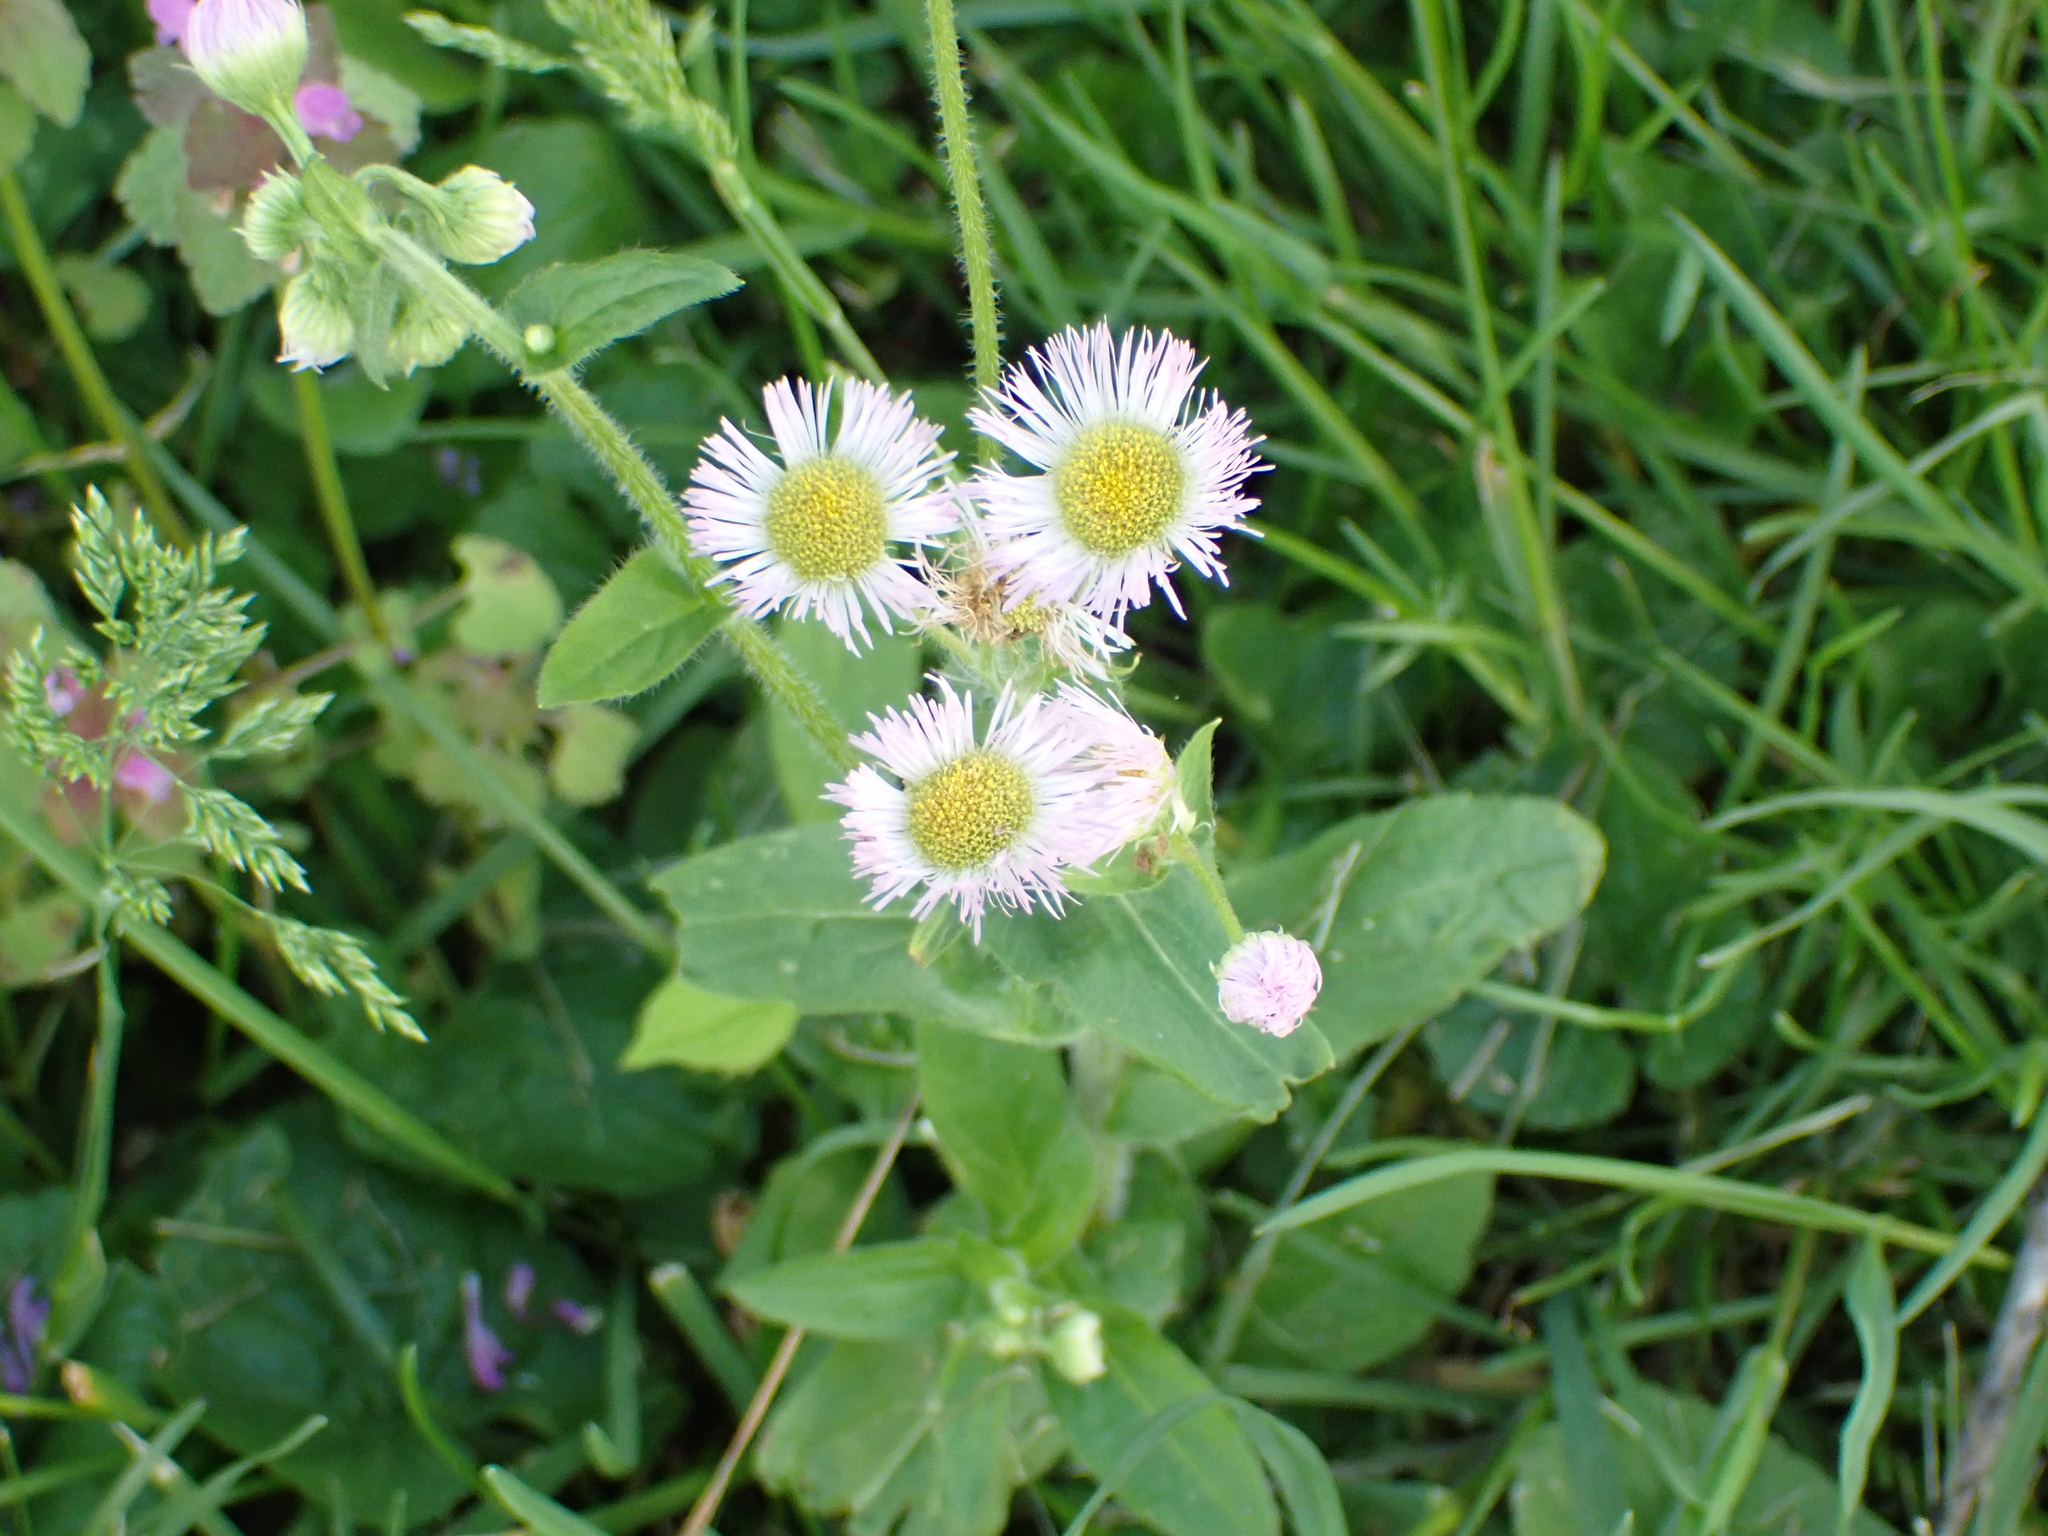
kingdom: Plantae
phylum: Tracheophyta
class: Magnoliopsida
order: Asterales
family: Asteraceae
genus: Erigeron
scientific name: Erigeron philadelphicus
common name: Robin's-plantain
